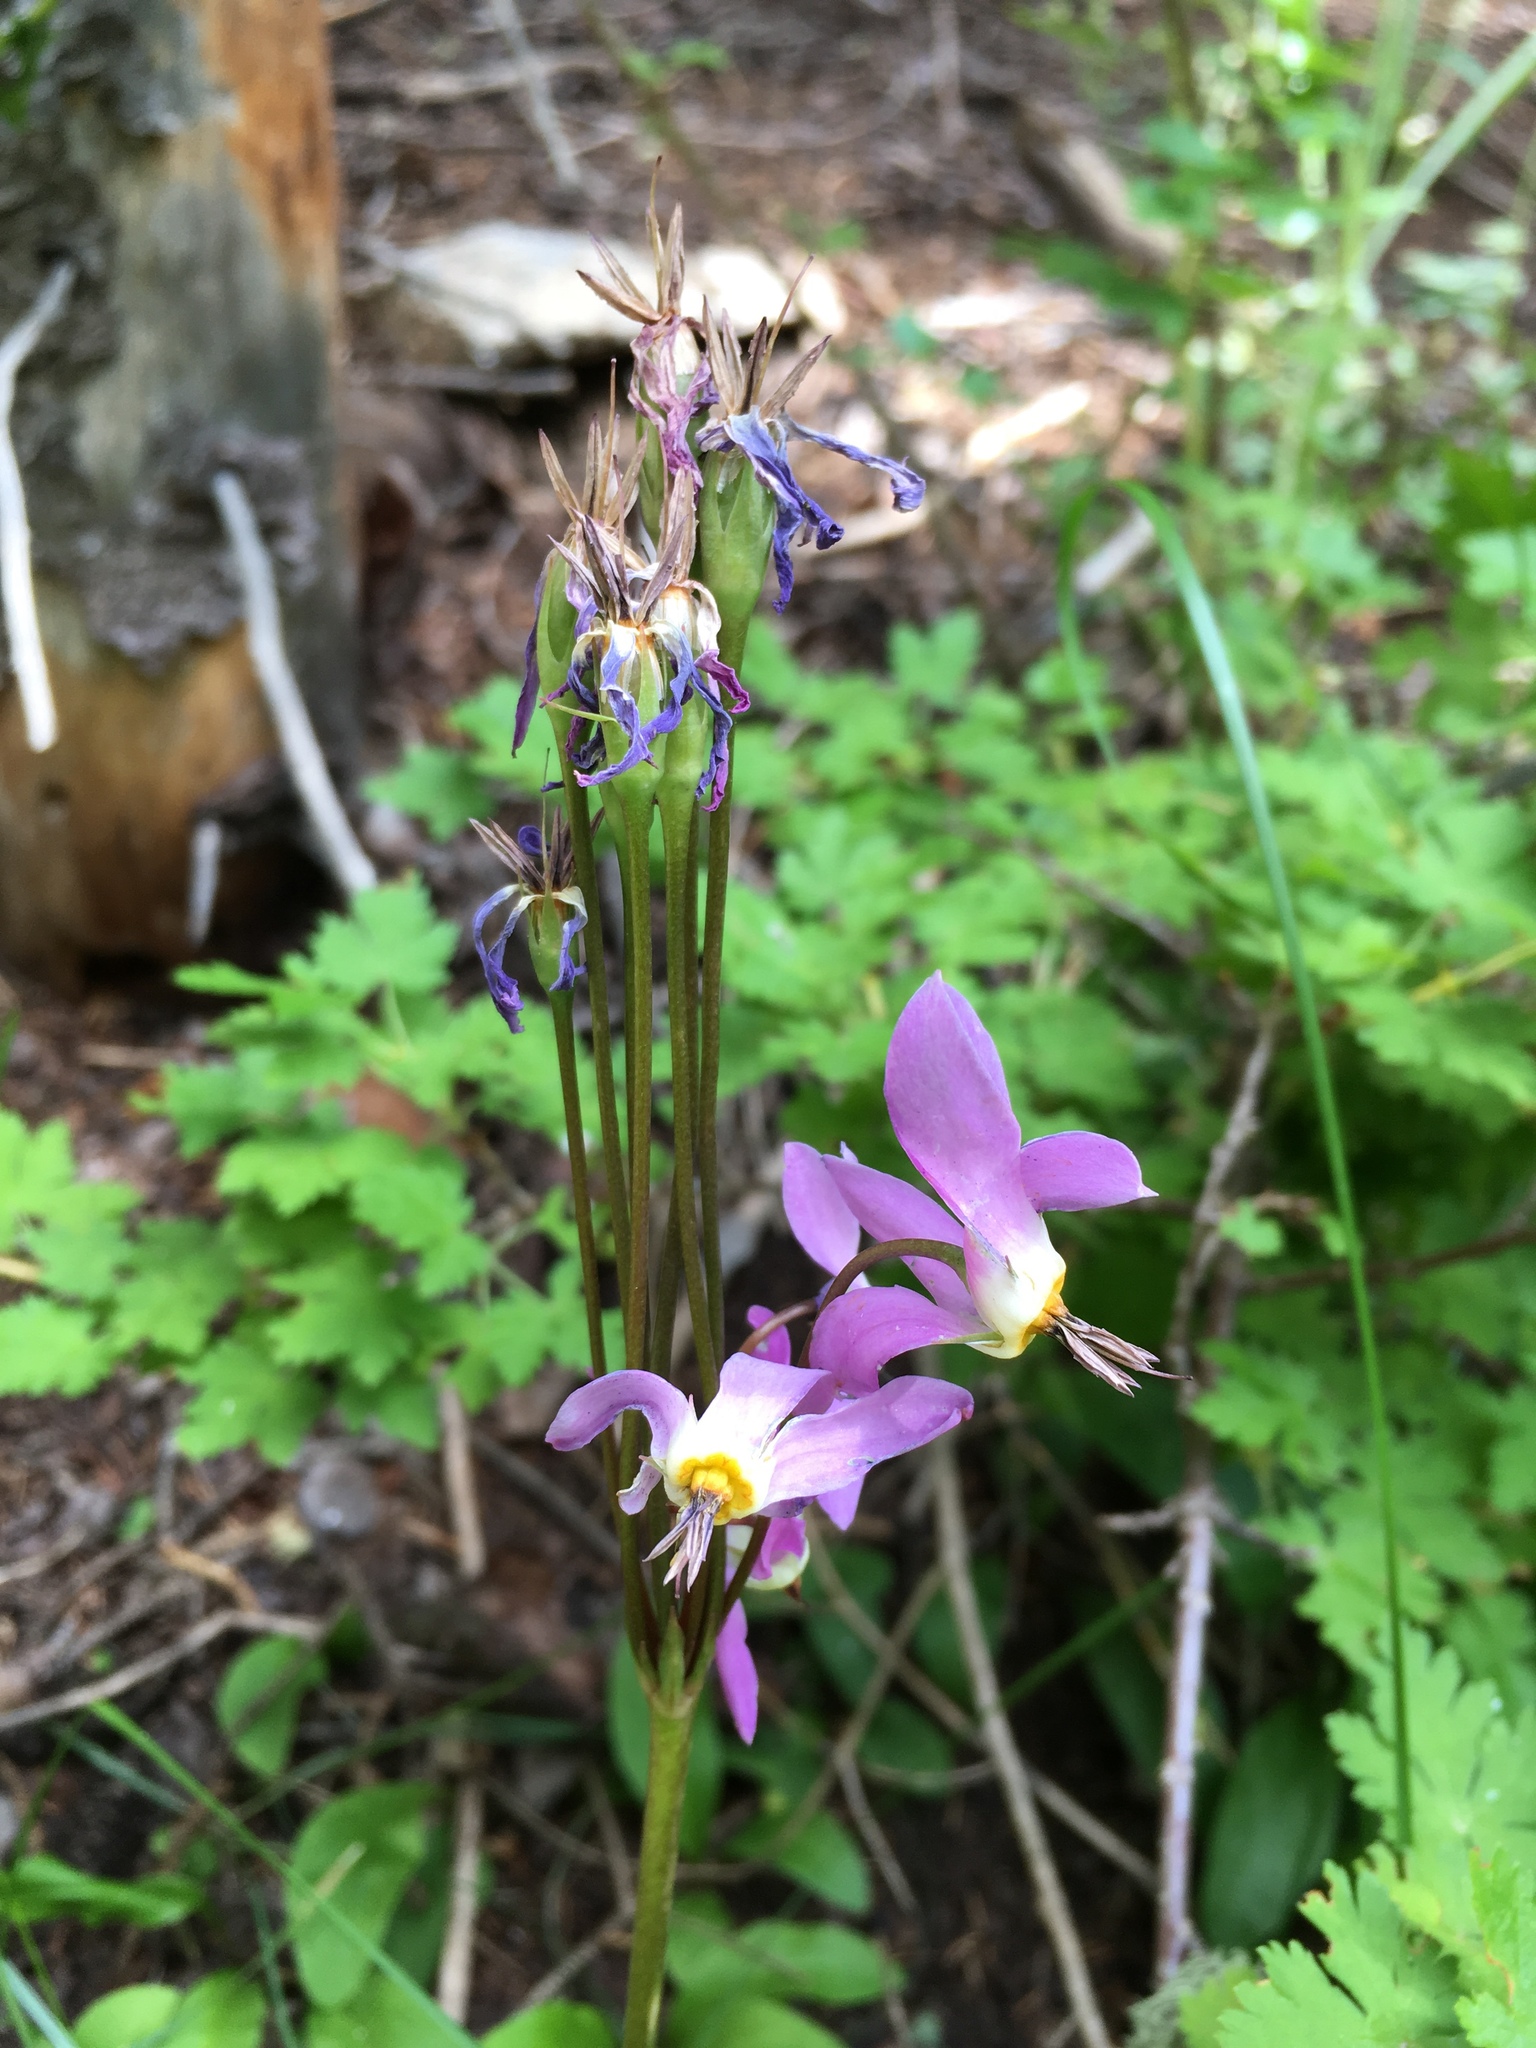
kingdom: Plantae
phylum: Tracheophyta
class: Magnoliopsida
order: Ericales
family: Primulaceae
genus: Dodecatheon
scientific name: Dodecatheon pulchellum
